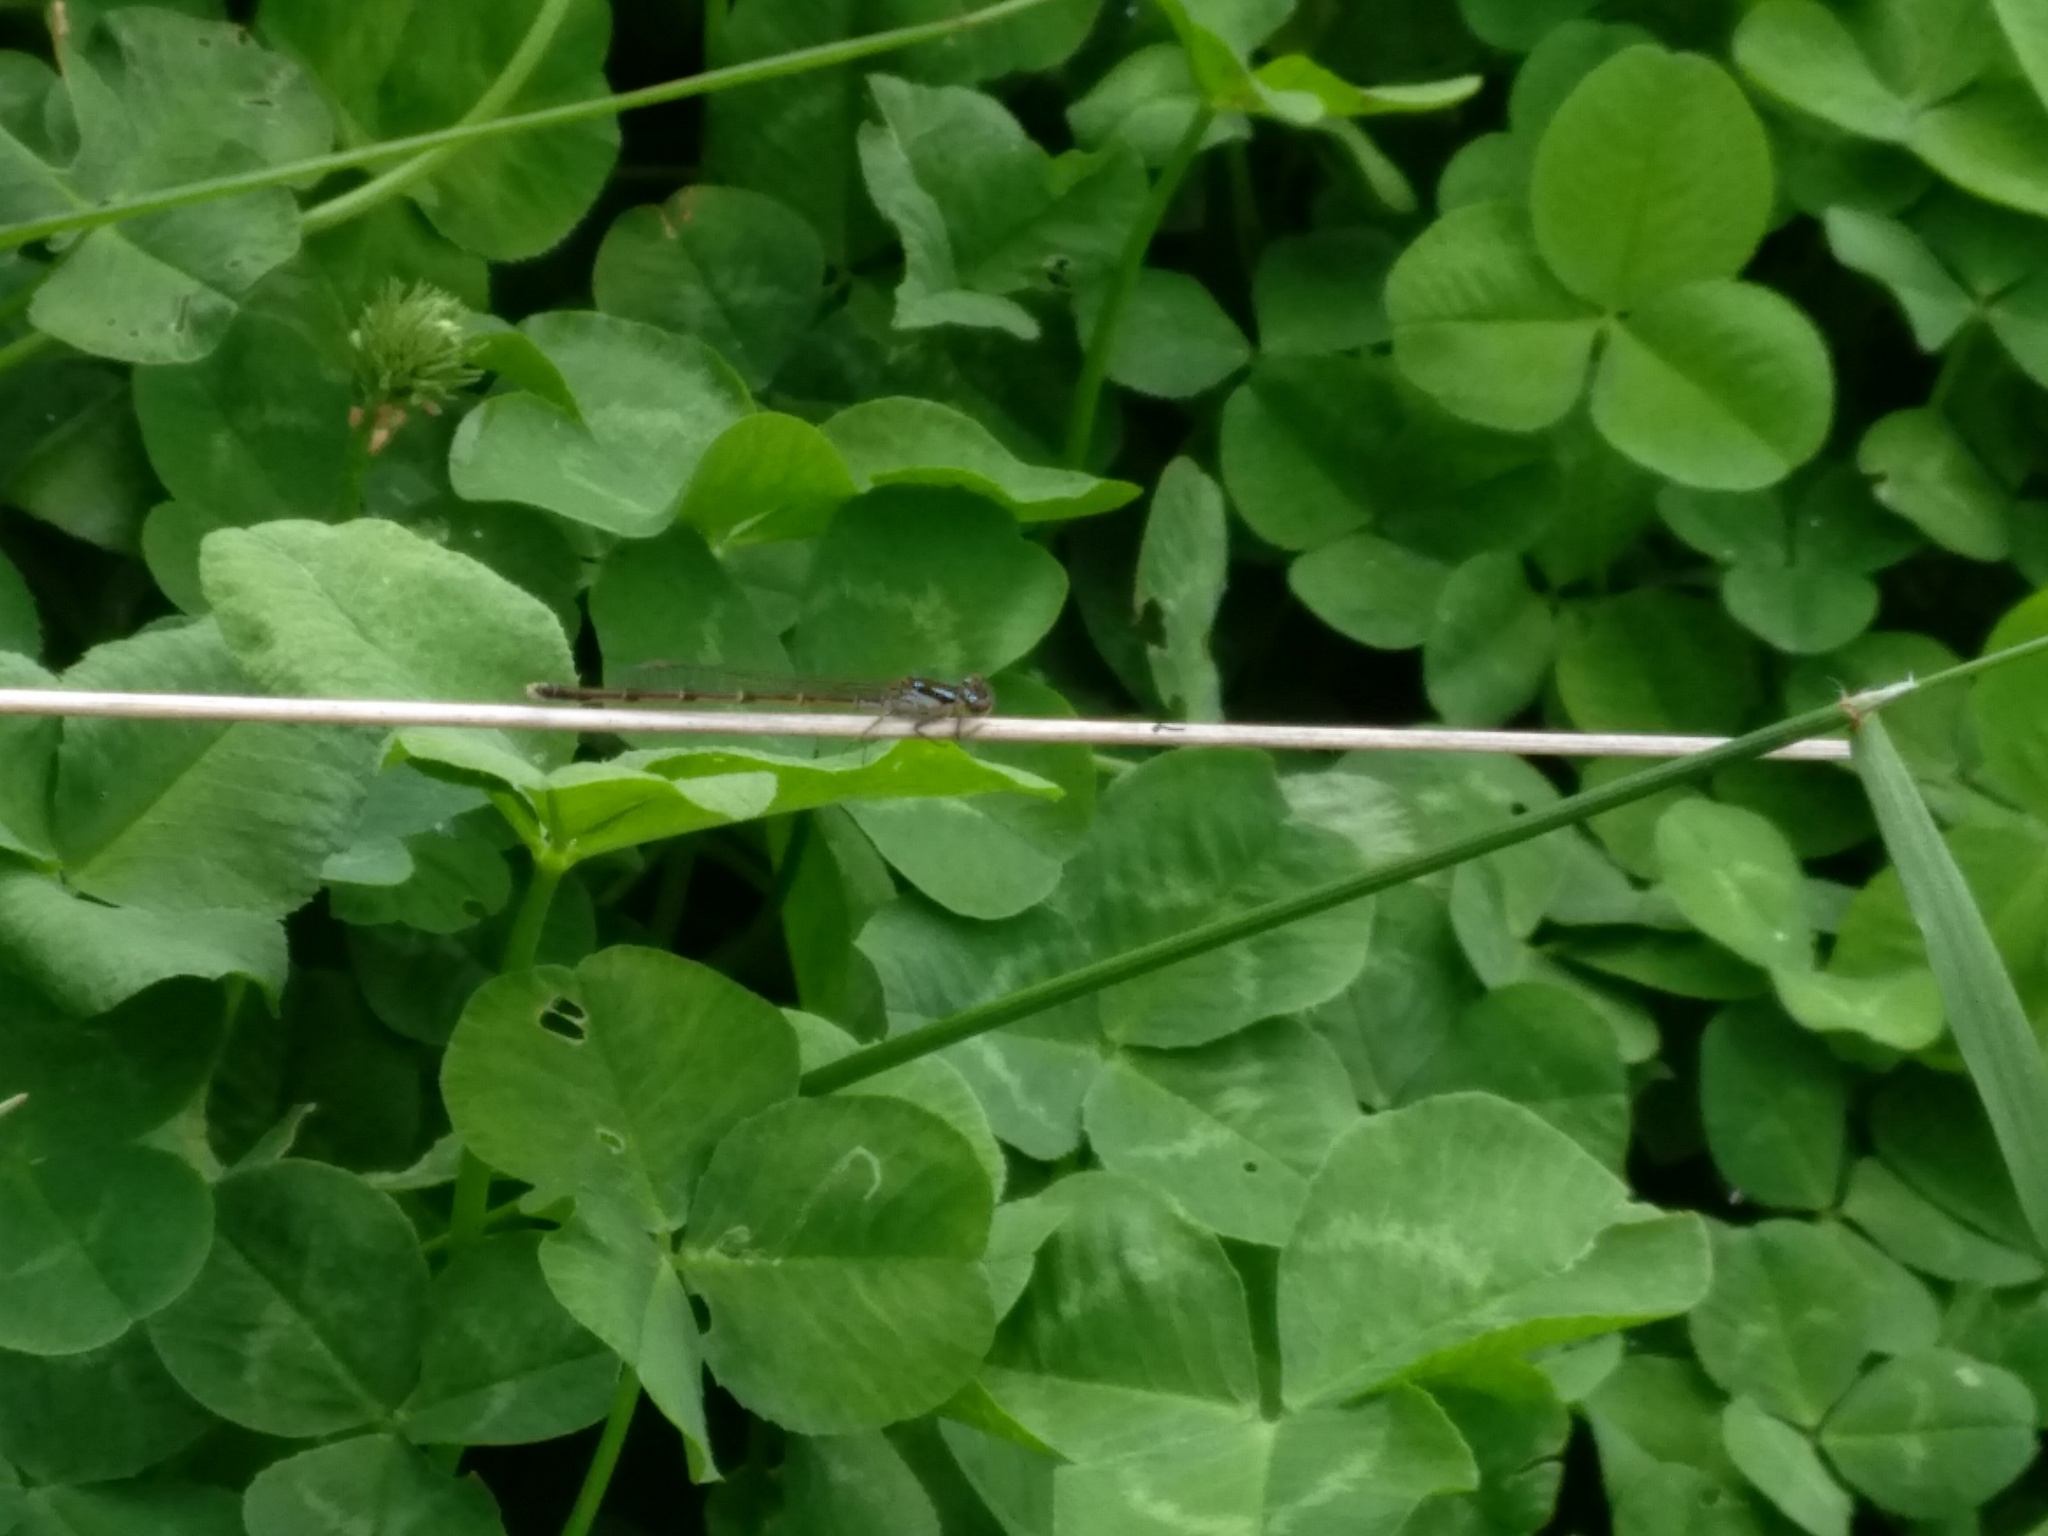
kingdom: Animalia
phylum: Arthropoda
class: Insecta
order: Odonata
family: Coenagrionidae
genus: Ischnura
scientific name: Ischnura posita
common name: Fragile forktail
